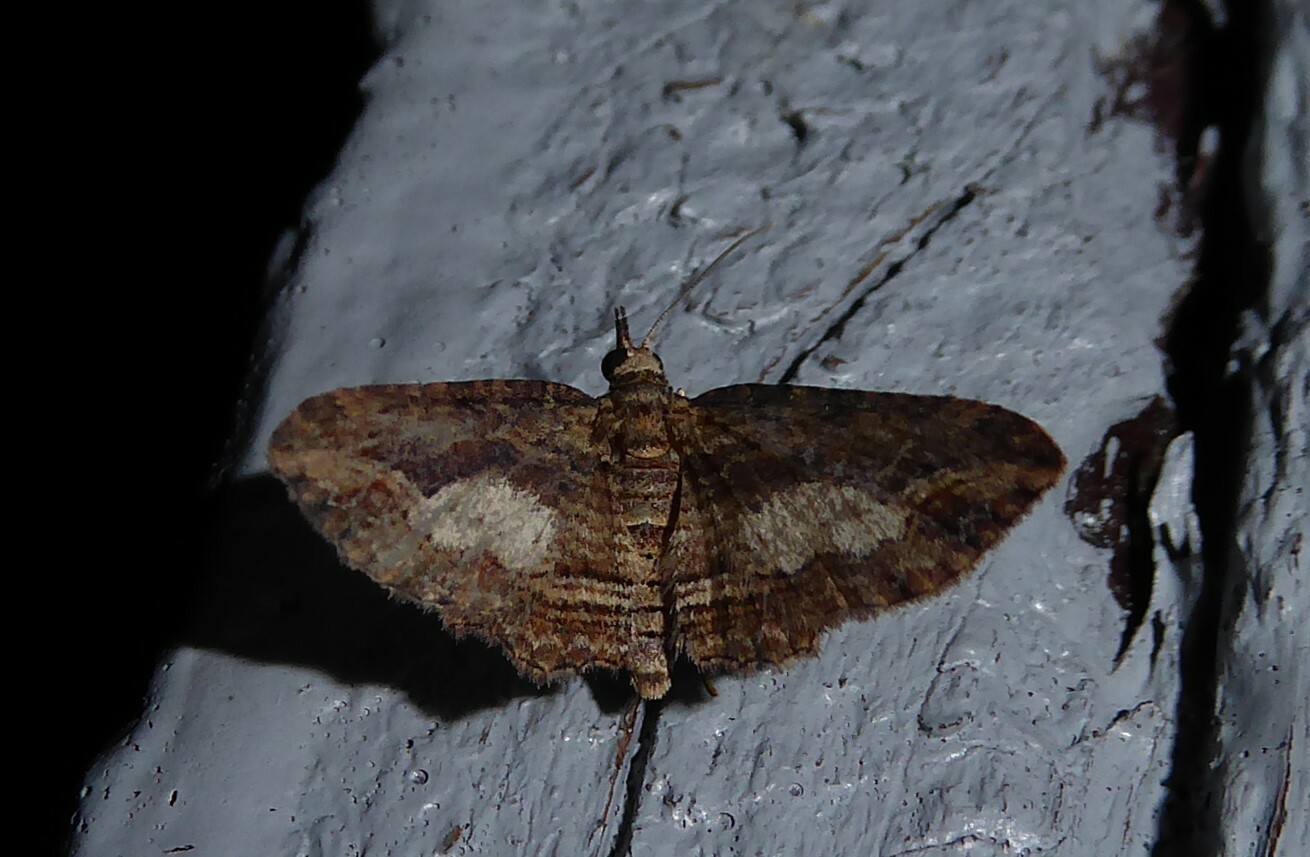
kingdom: Animalia
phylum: Arthropoda
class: Insecta
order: Lepidoptera
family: Geometridae
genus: Chloroclystis
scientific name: Chloroclystis filata
